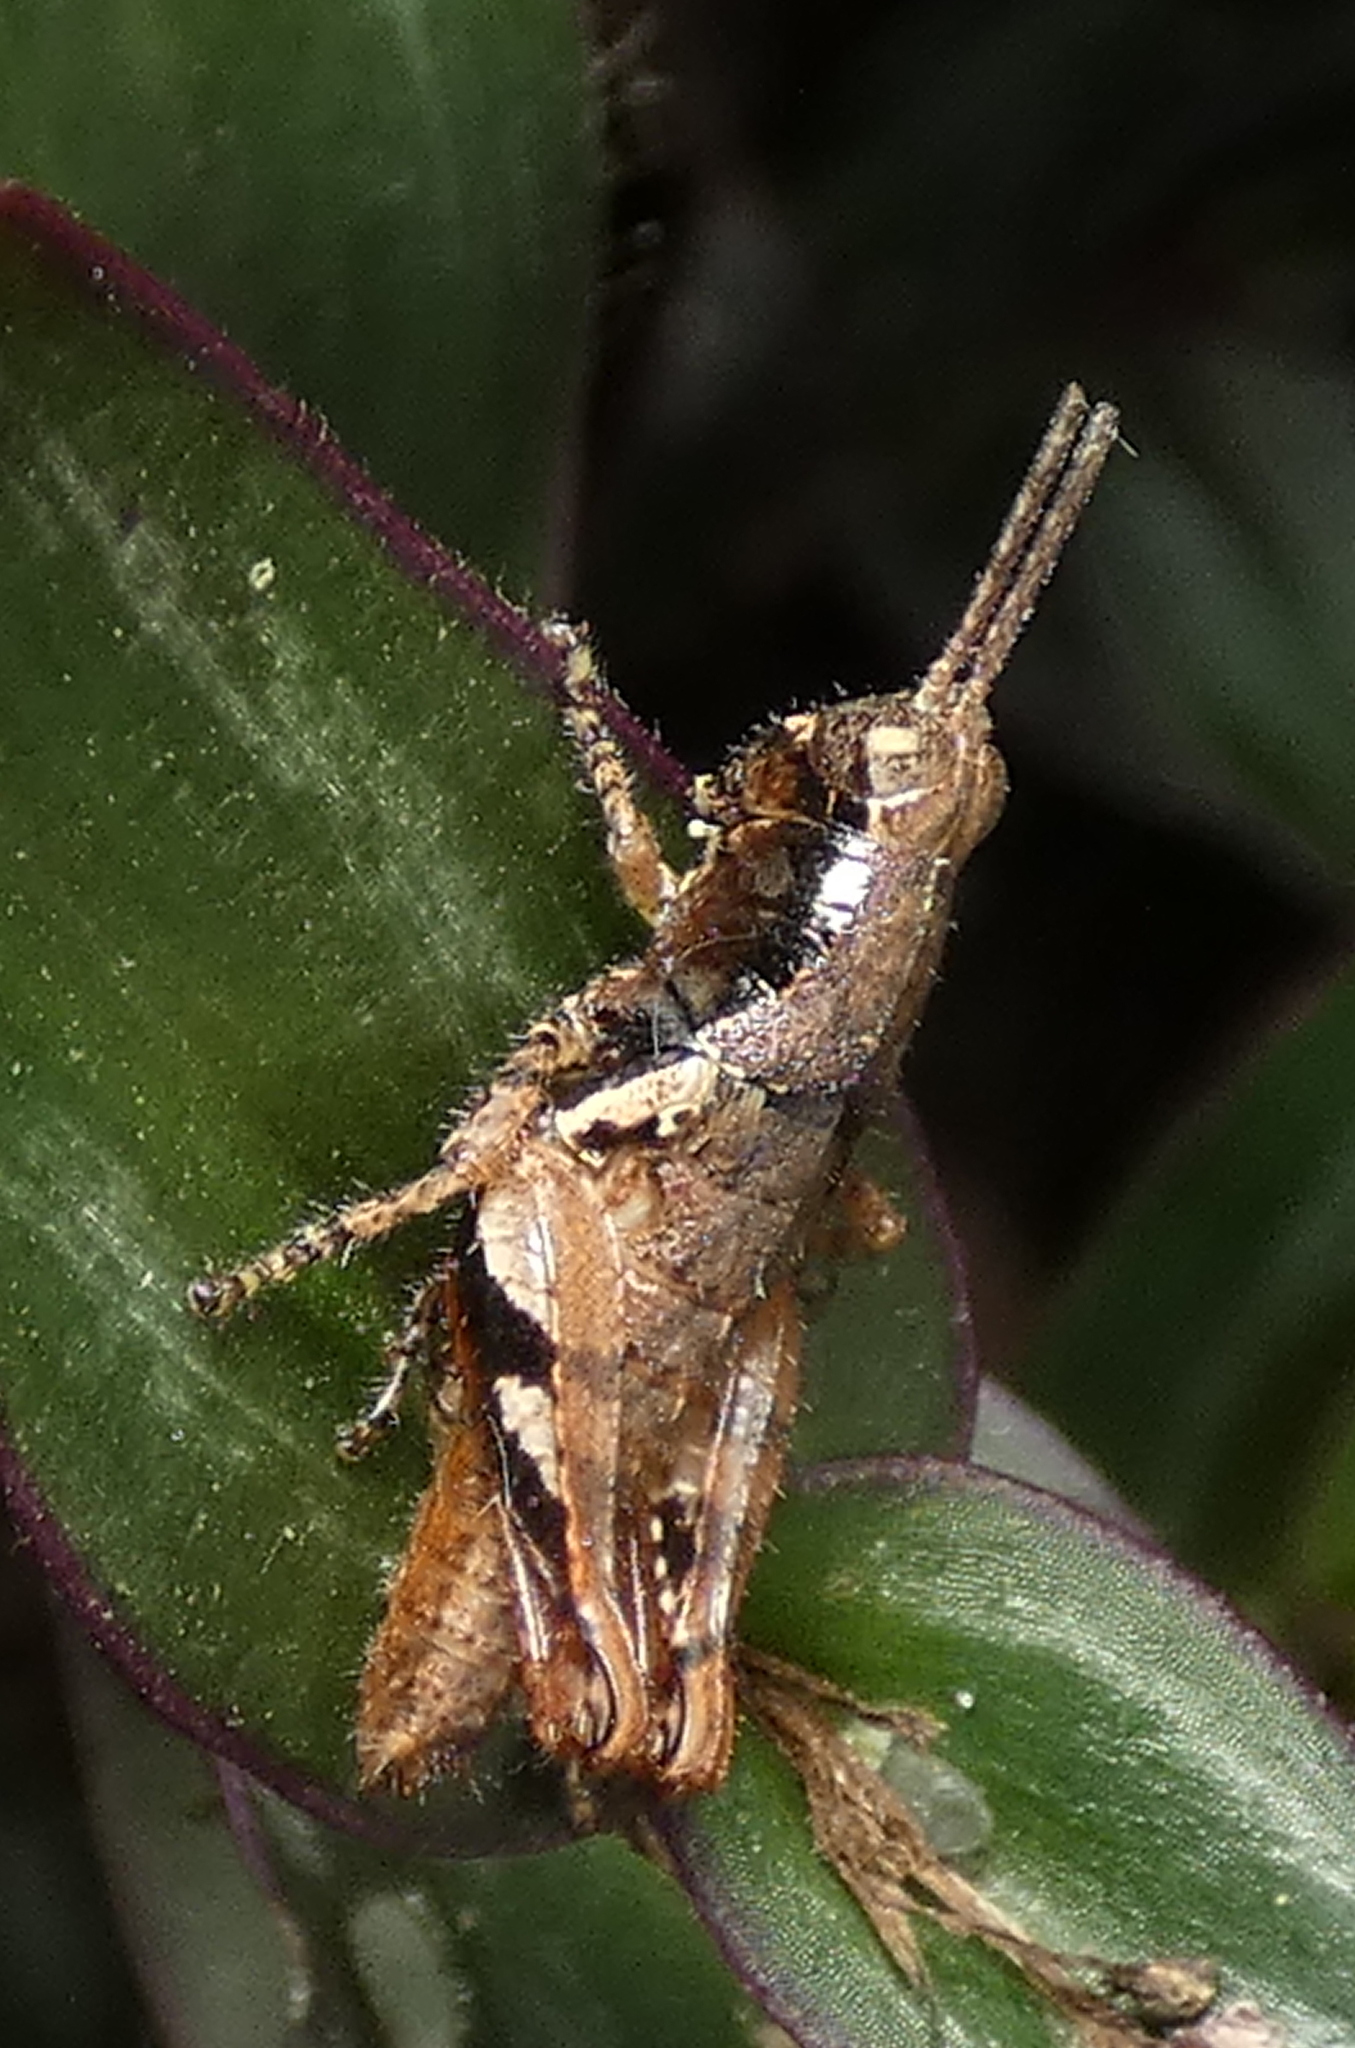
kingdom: Animalia
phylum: Arthropoda
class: Insecta
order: Orthoptera
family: Acrididae
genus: Eujivarus
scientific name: Eujivarus meridionalis
